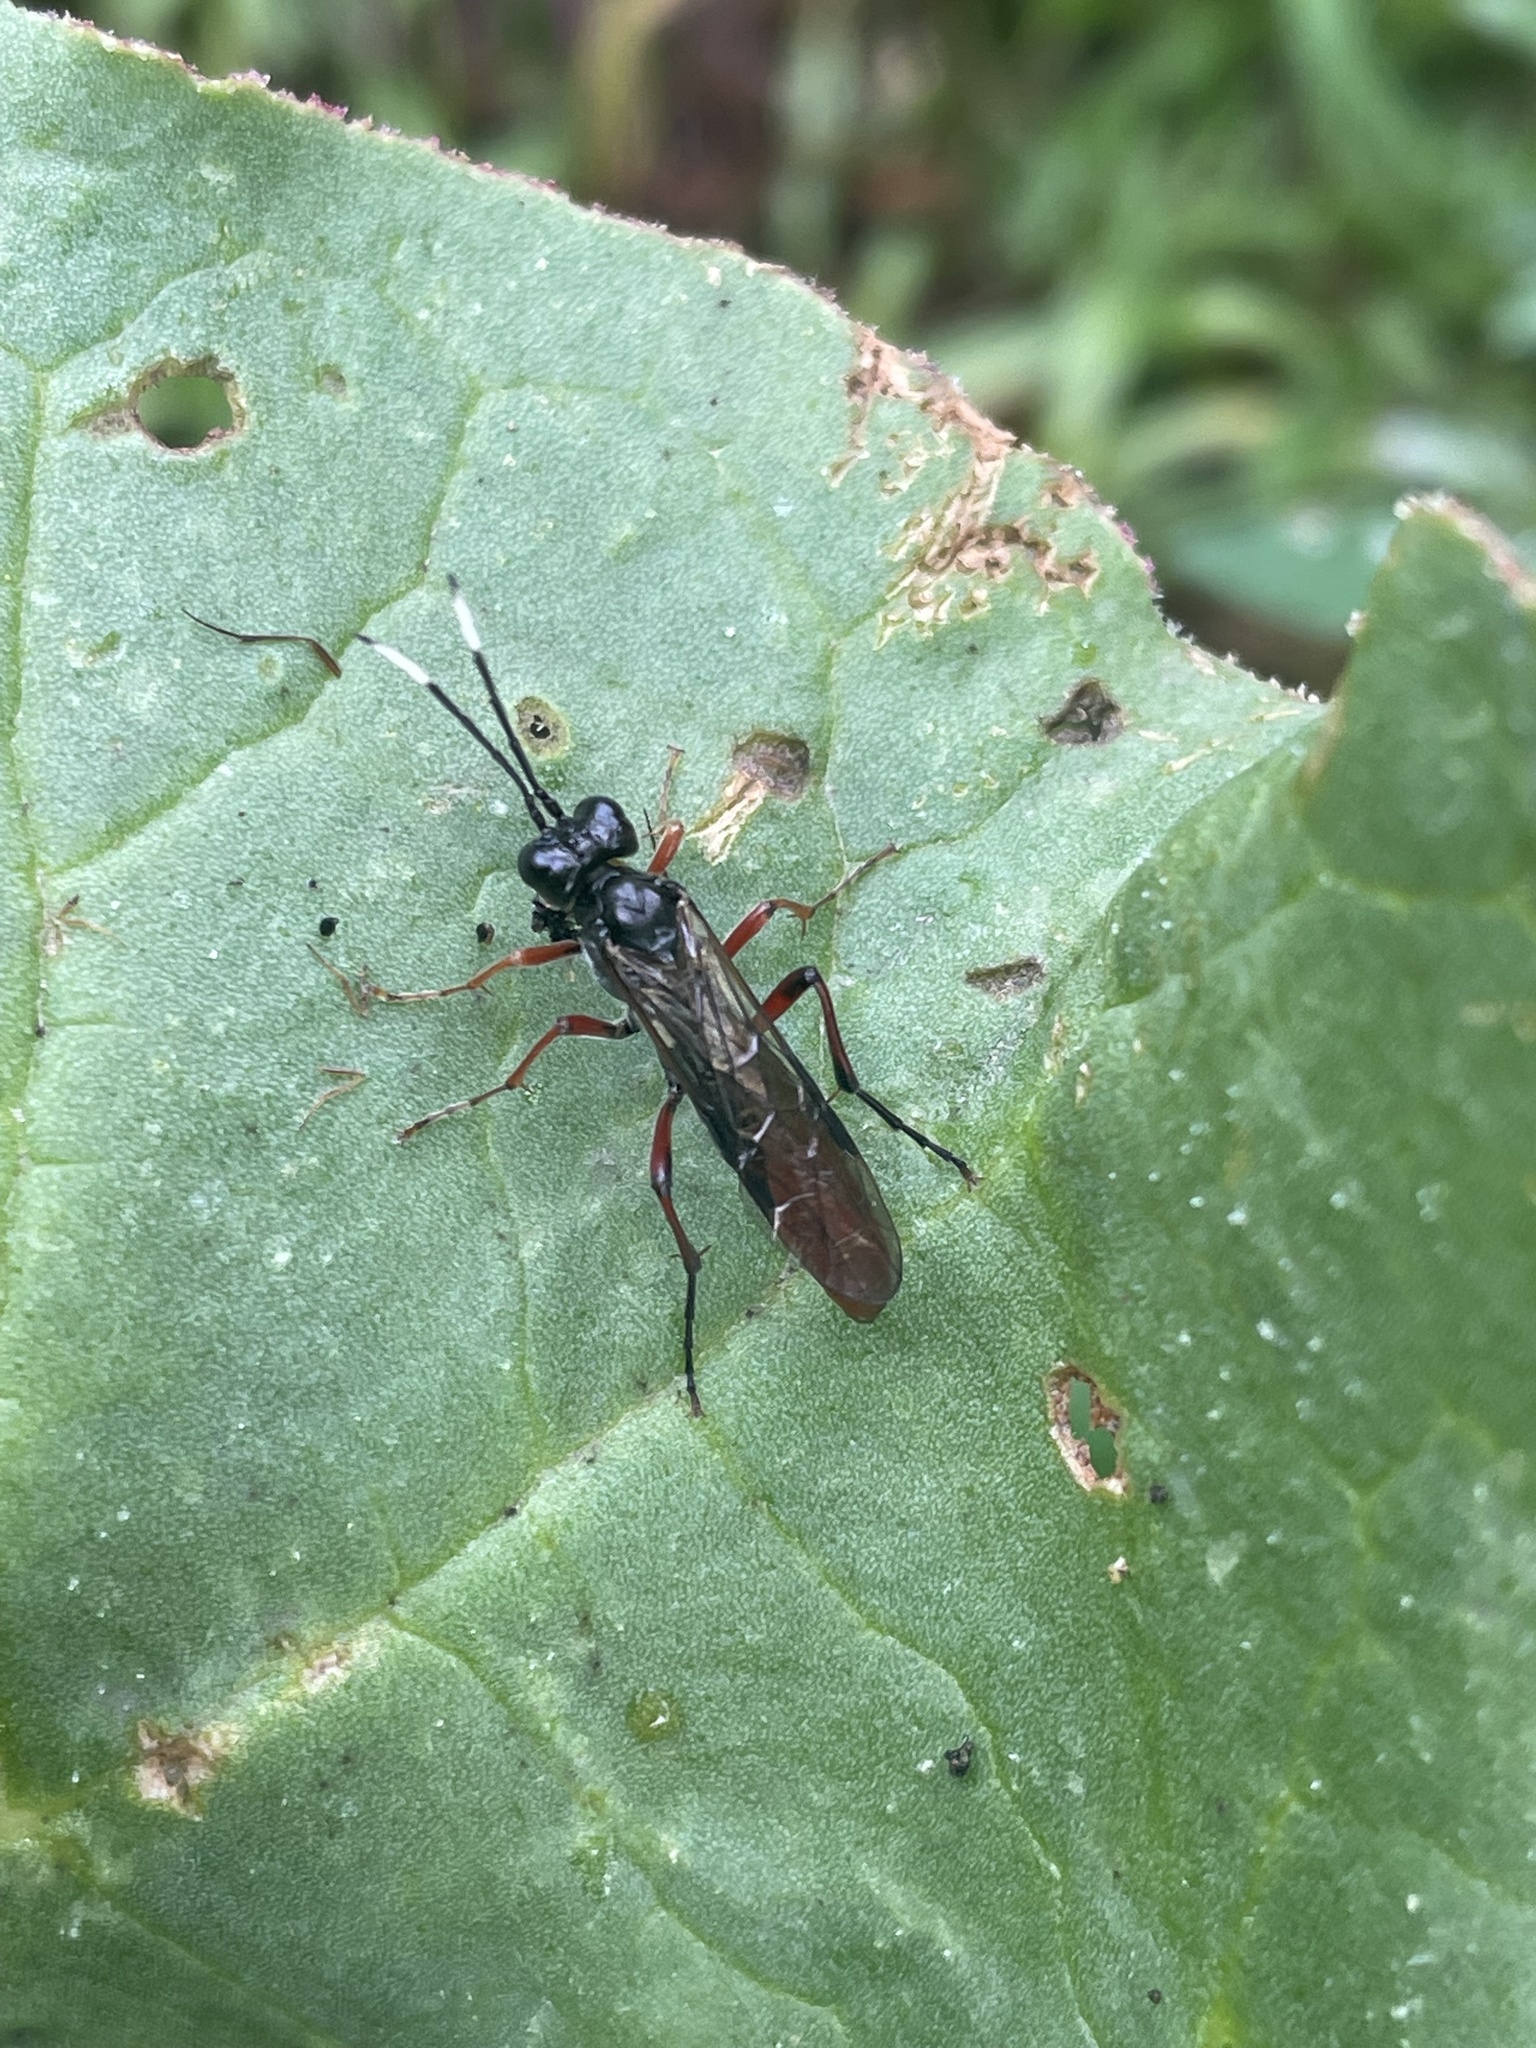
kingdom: Animalia
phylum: Arthropoda
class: Insecta
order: Hymenoptera
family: Tenthredinidae
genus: Tenthredo
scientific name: Tenthredo semicolon
